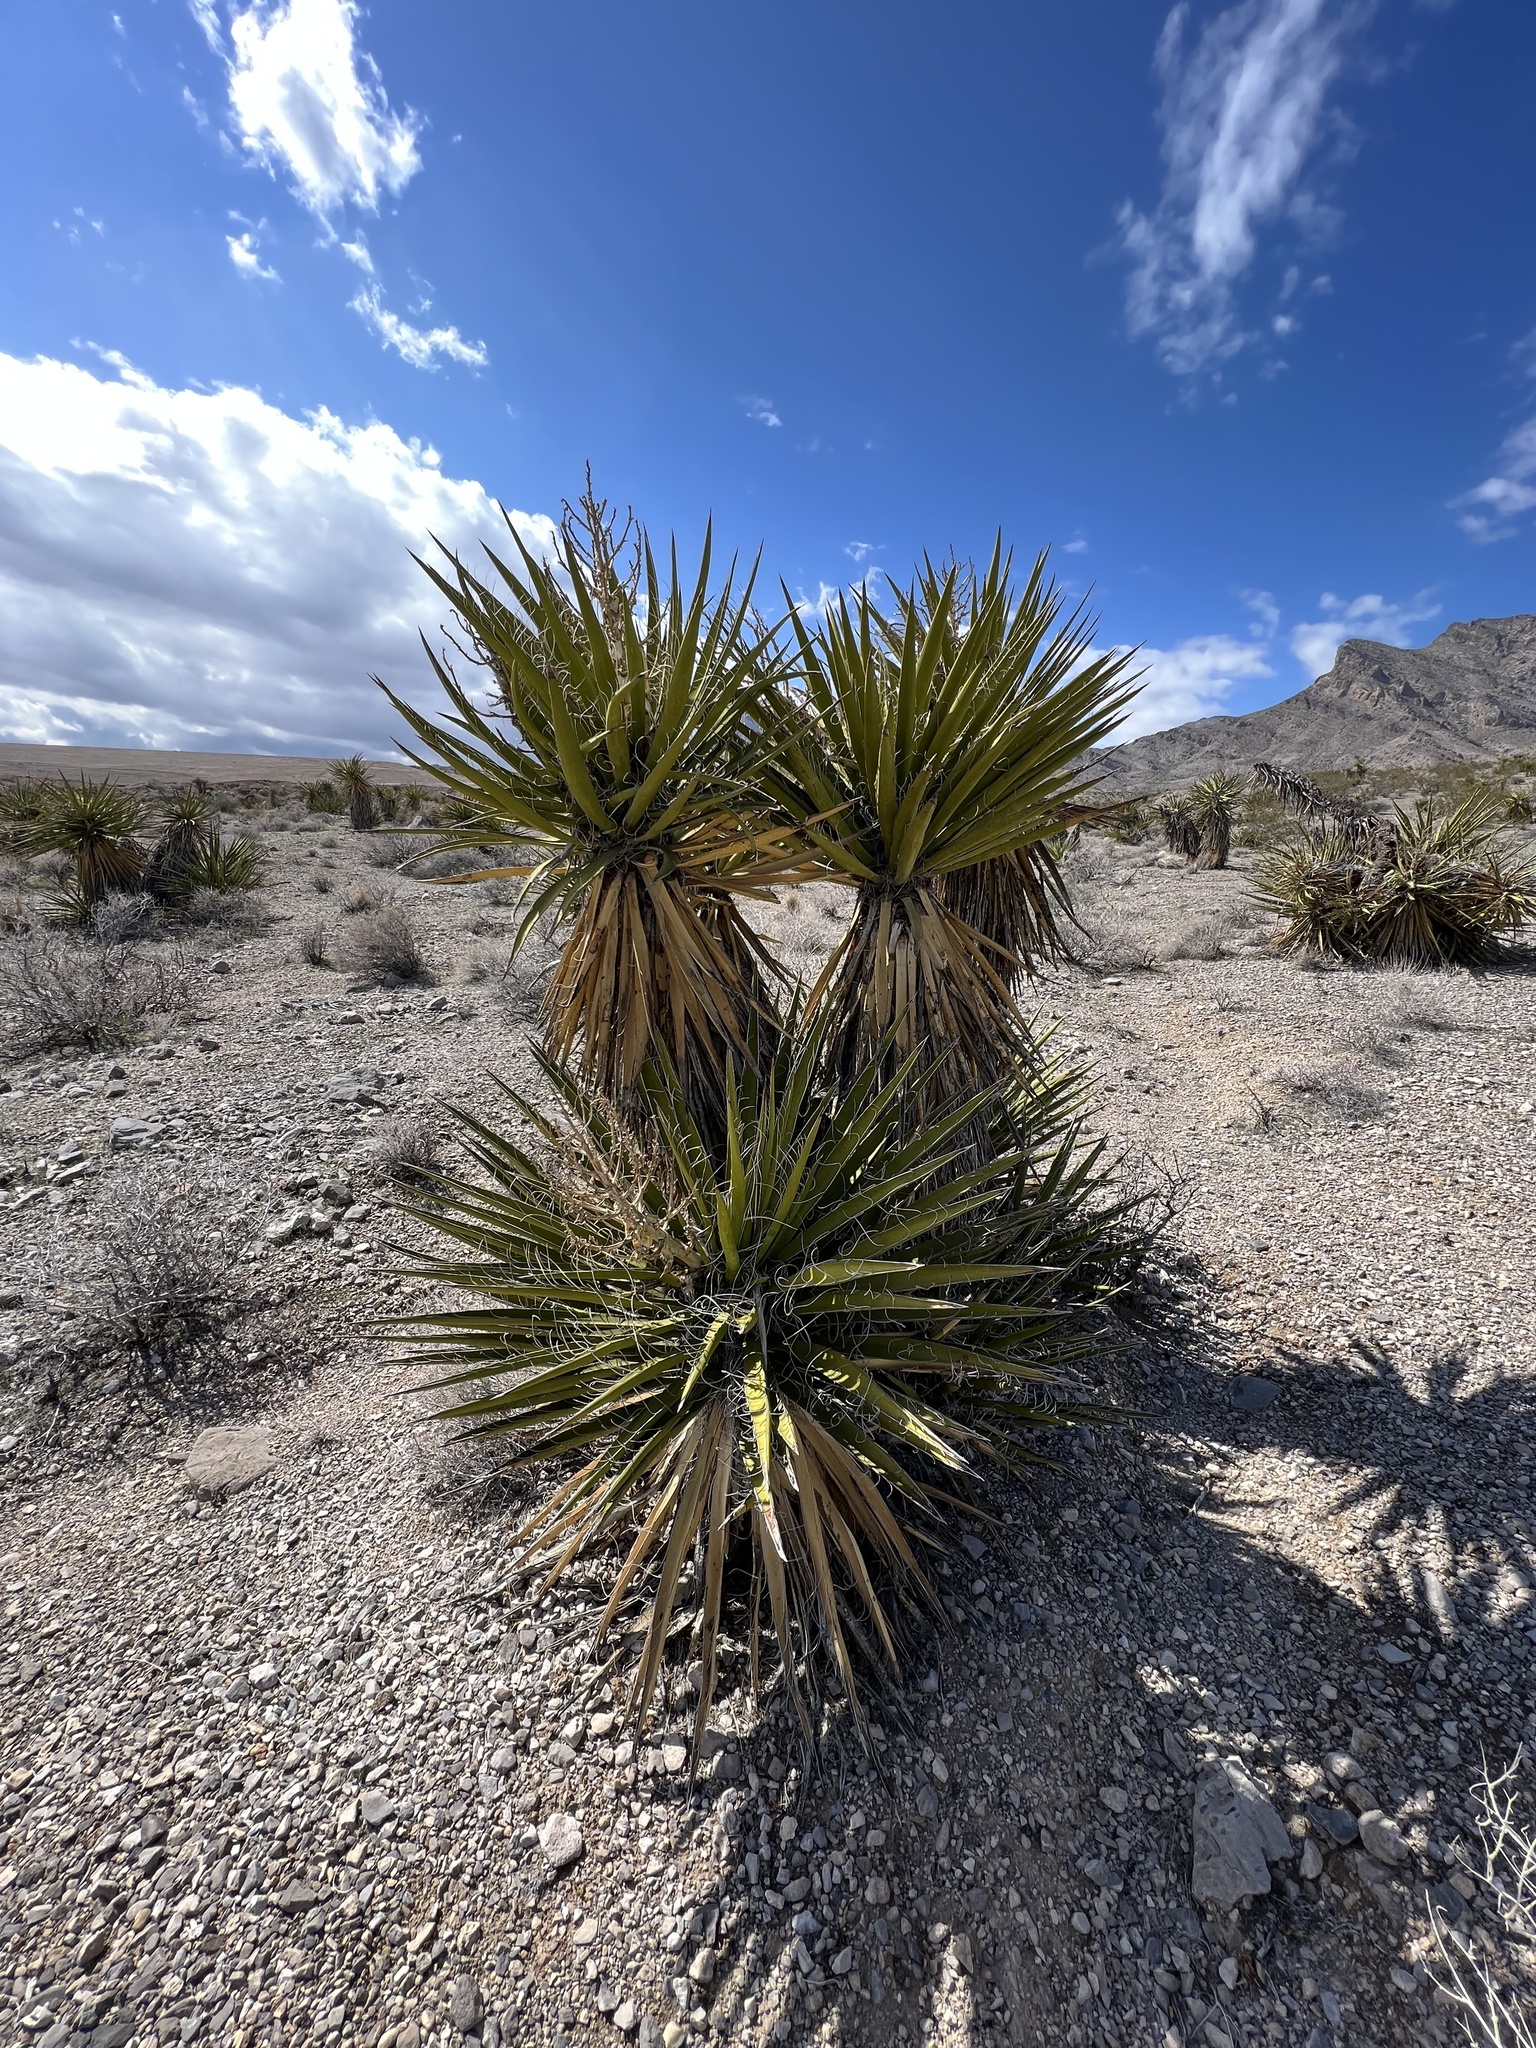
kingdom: Plantae
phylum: Tracheophyta
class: Liliopsida
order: Asparagales
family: Asparagaceae
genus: Yucca
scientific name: Yucca schidigera
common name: Mojave yucca
